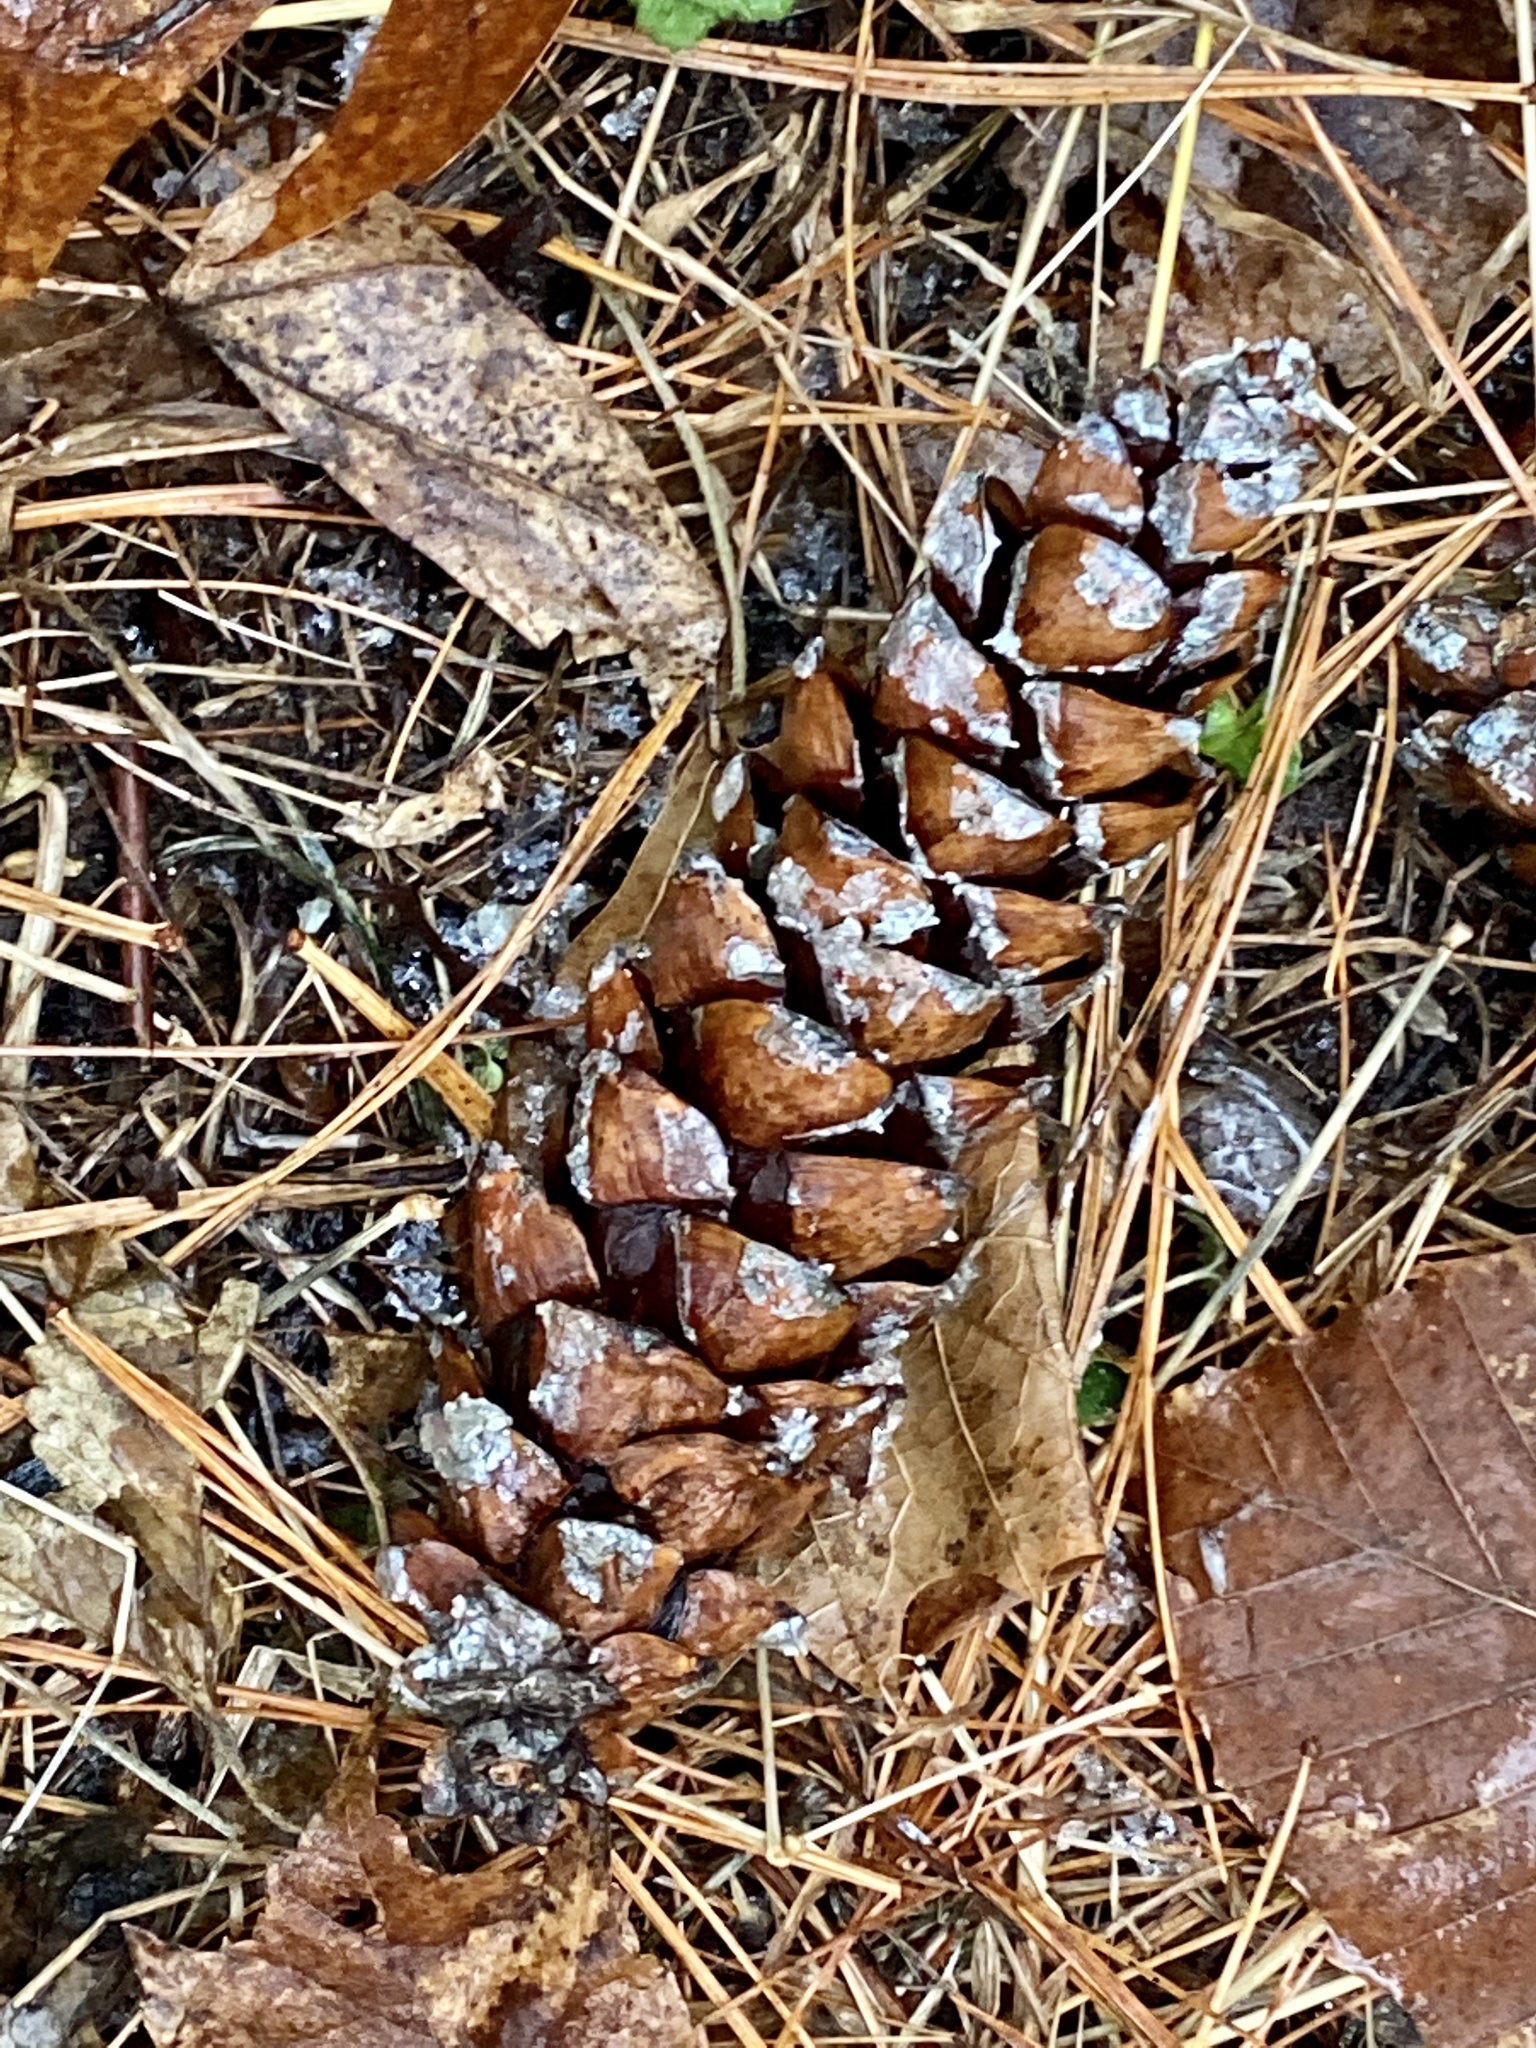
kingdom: Plantae
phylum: Tracheophyta
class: Pinopsida
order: Pinales
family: Pinaceae
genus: Pinus
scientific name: Pinus strobus
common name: Weymouth pine
